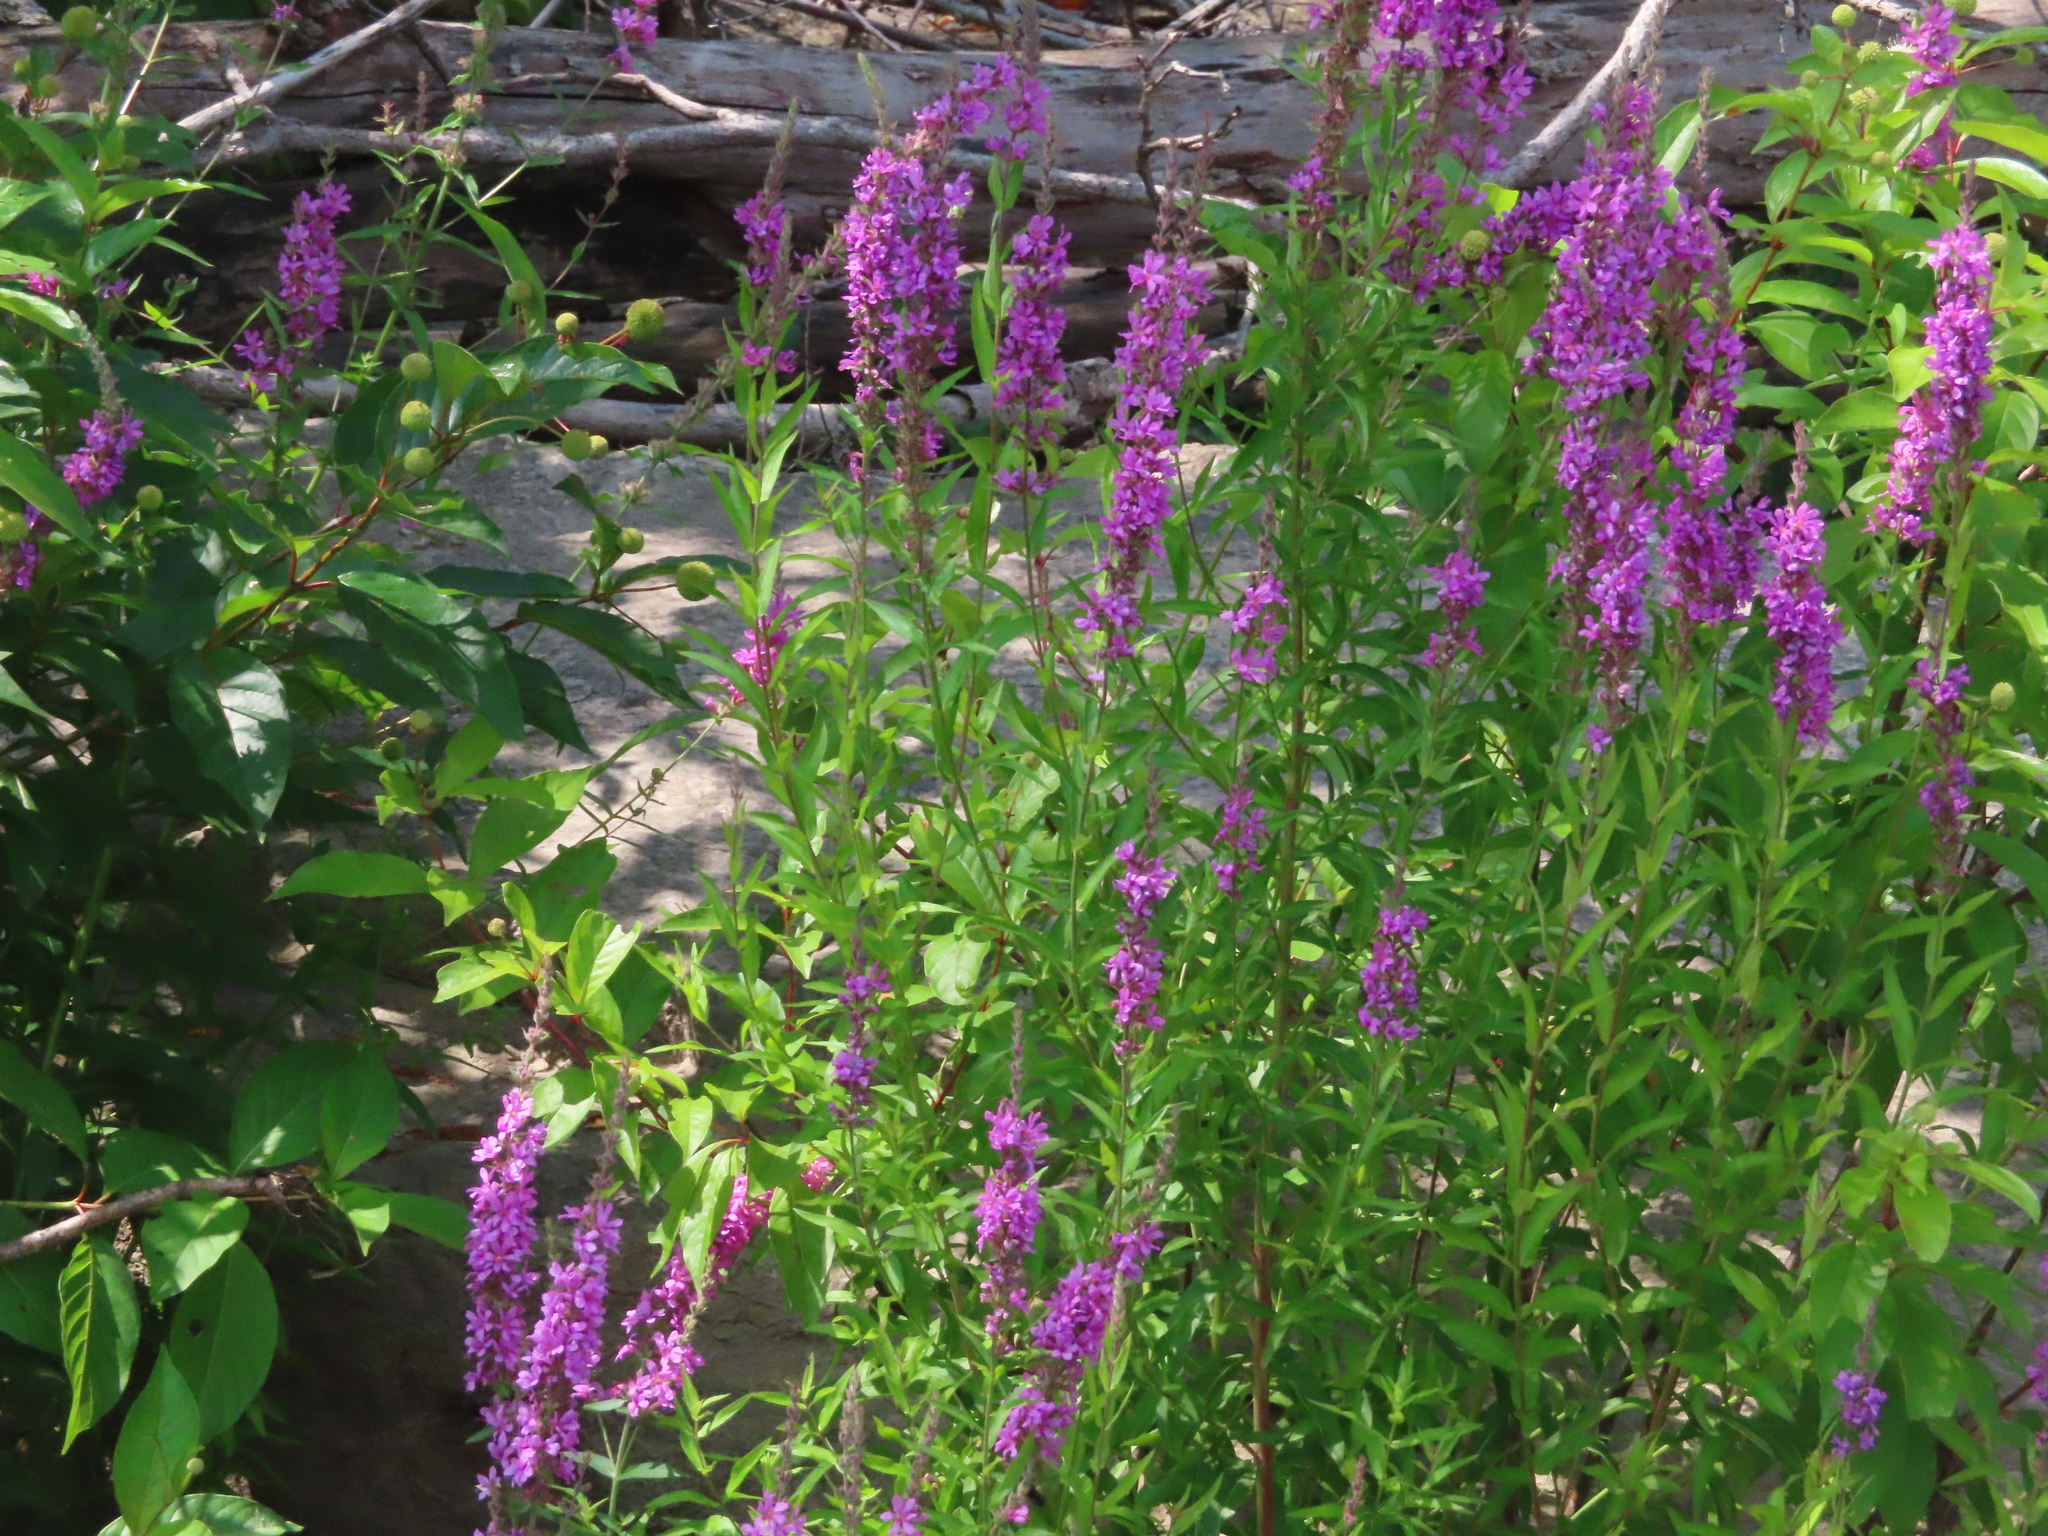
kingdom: Plantae
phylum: Tracheophyta
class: Magnoliopsida
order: Myrtales
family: Lythraceae
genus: Lythrum
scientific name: Lythrum salicaria
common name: Purple loosestrife
